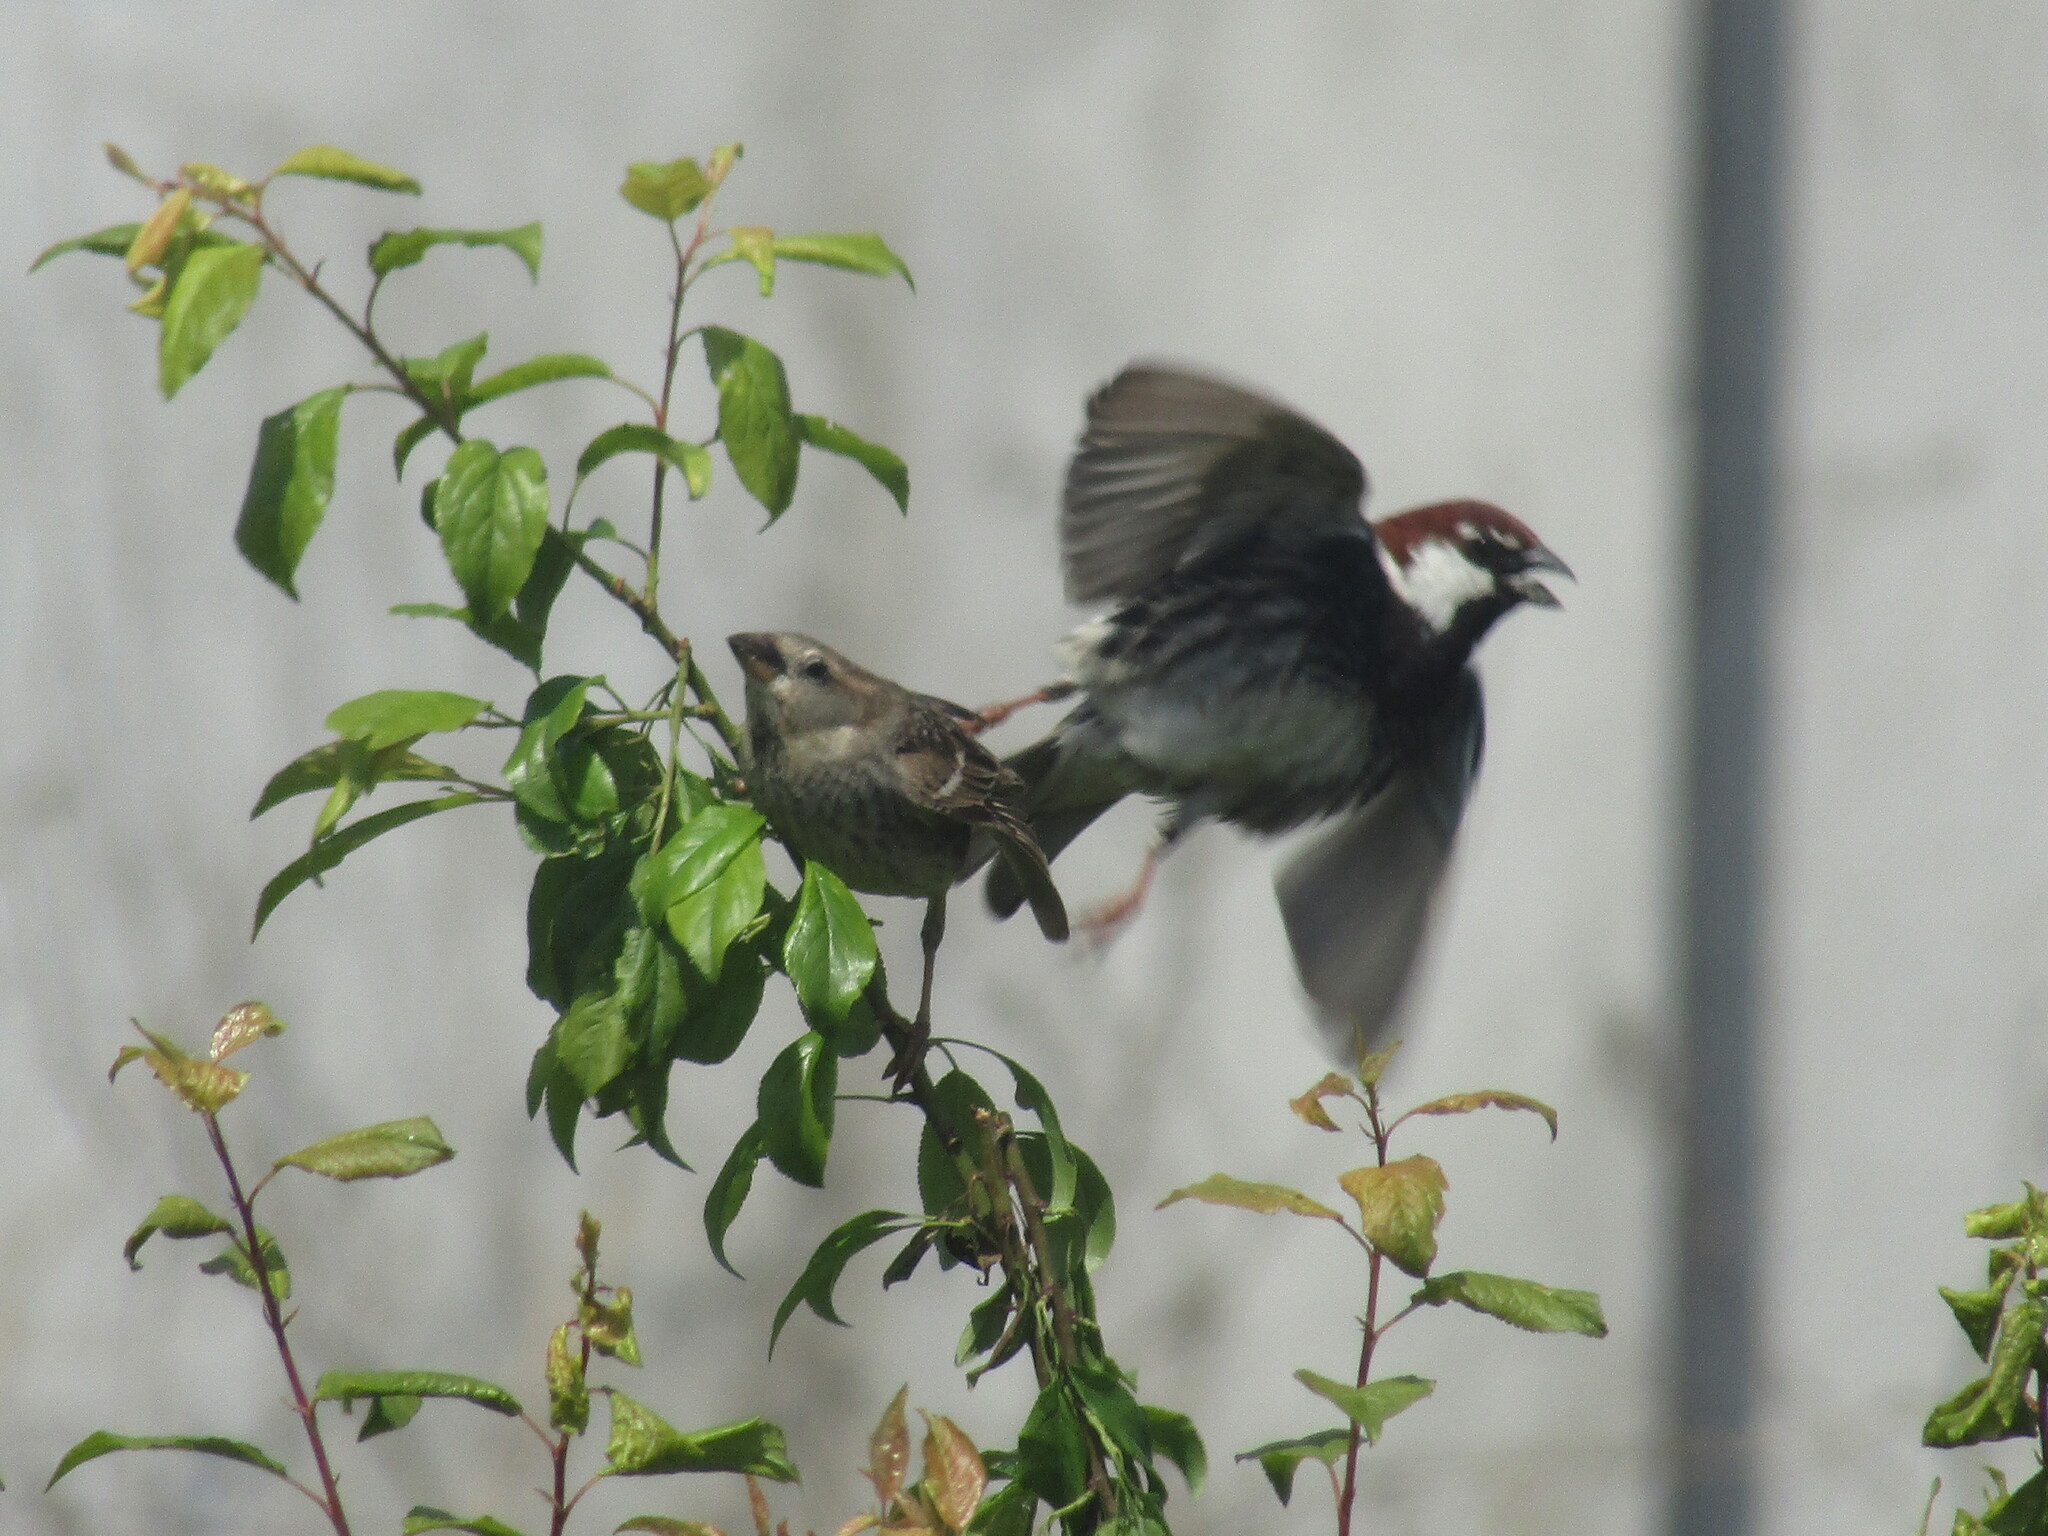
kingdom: Animalia
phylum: Chordata
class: Aves
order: Passeriformes
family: Passeridae
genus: Passer
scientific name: Passer hispaniolensis
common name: Spanish sparrow
